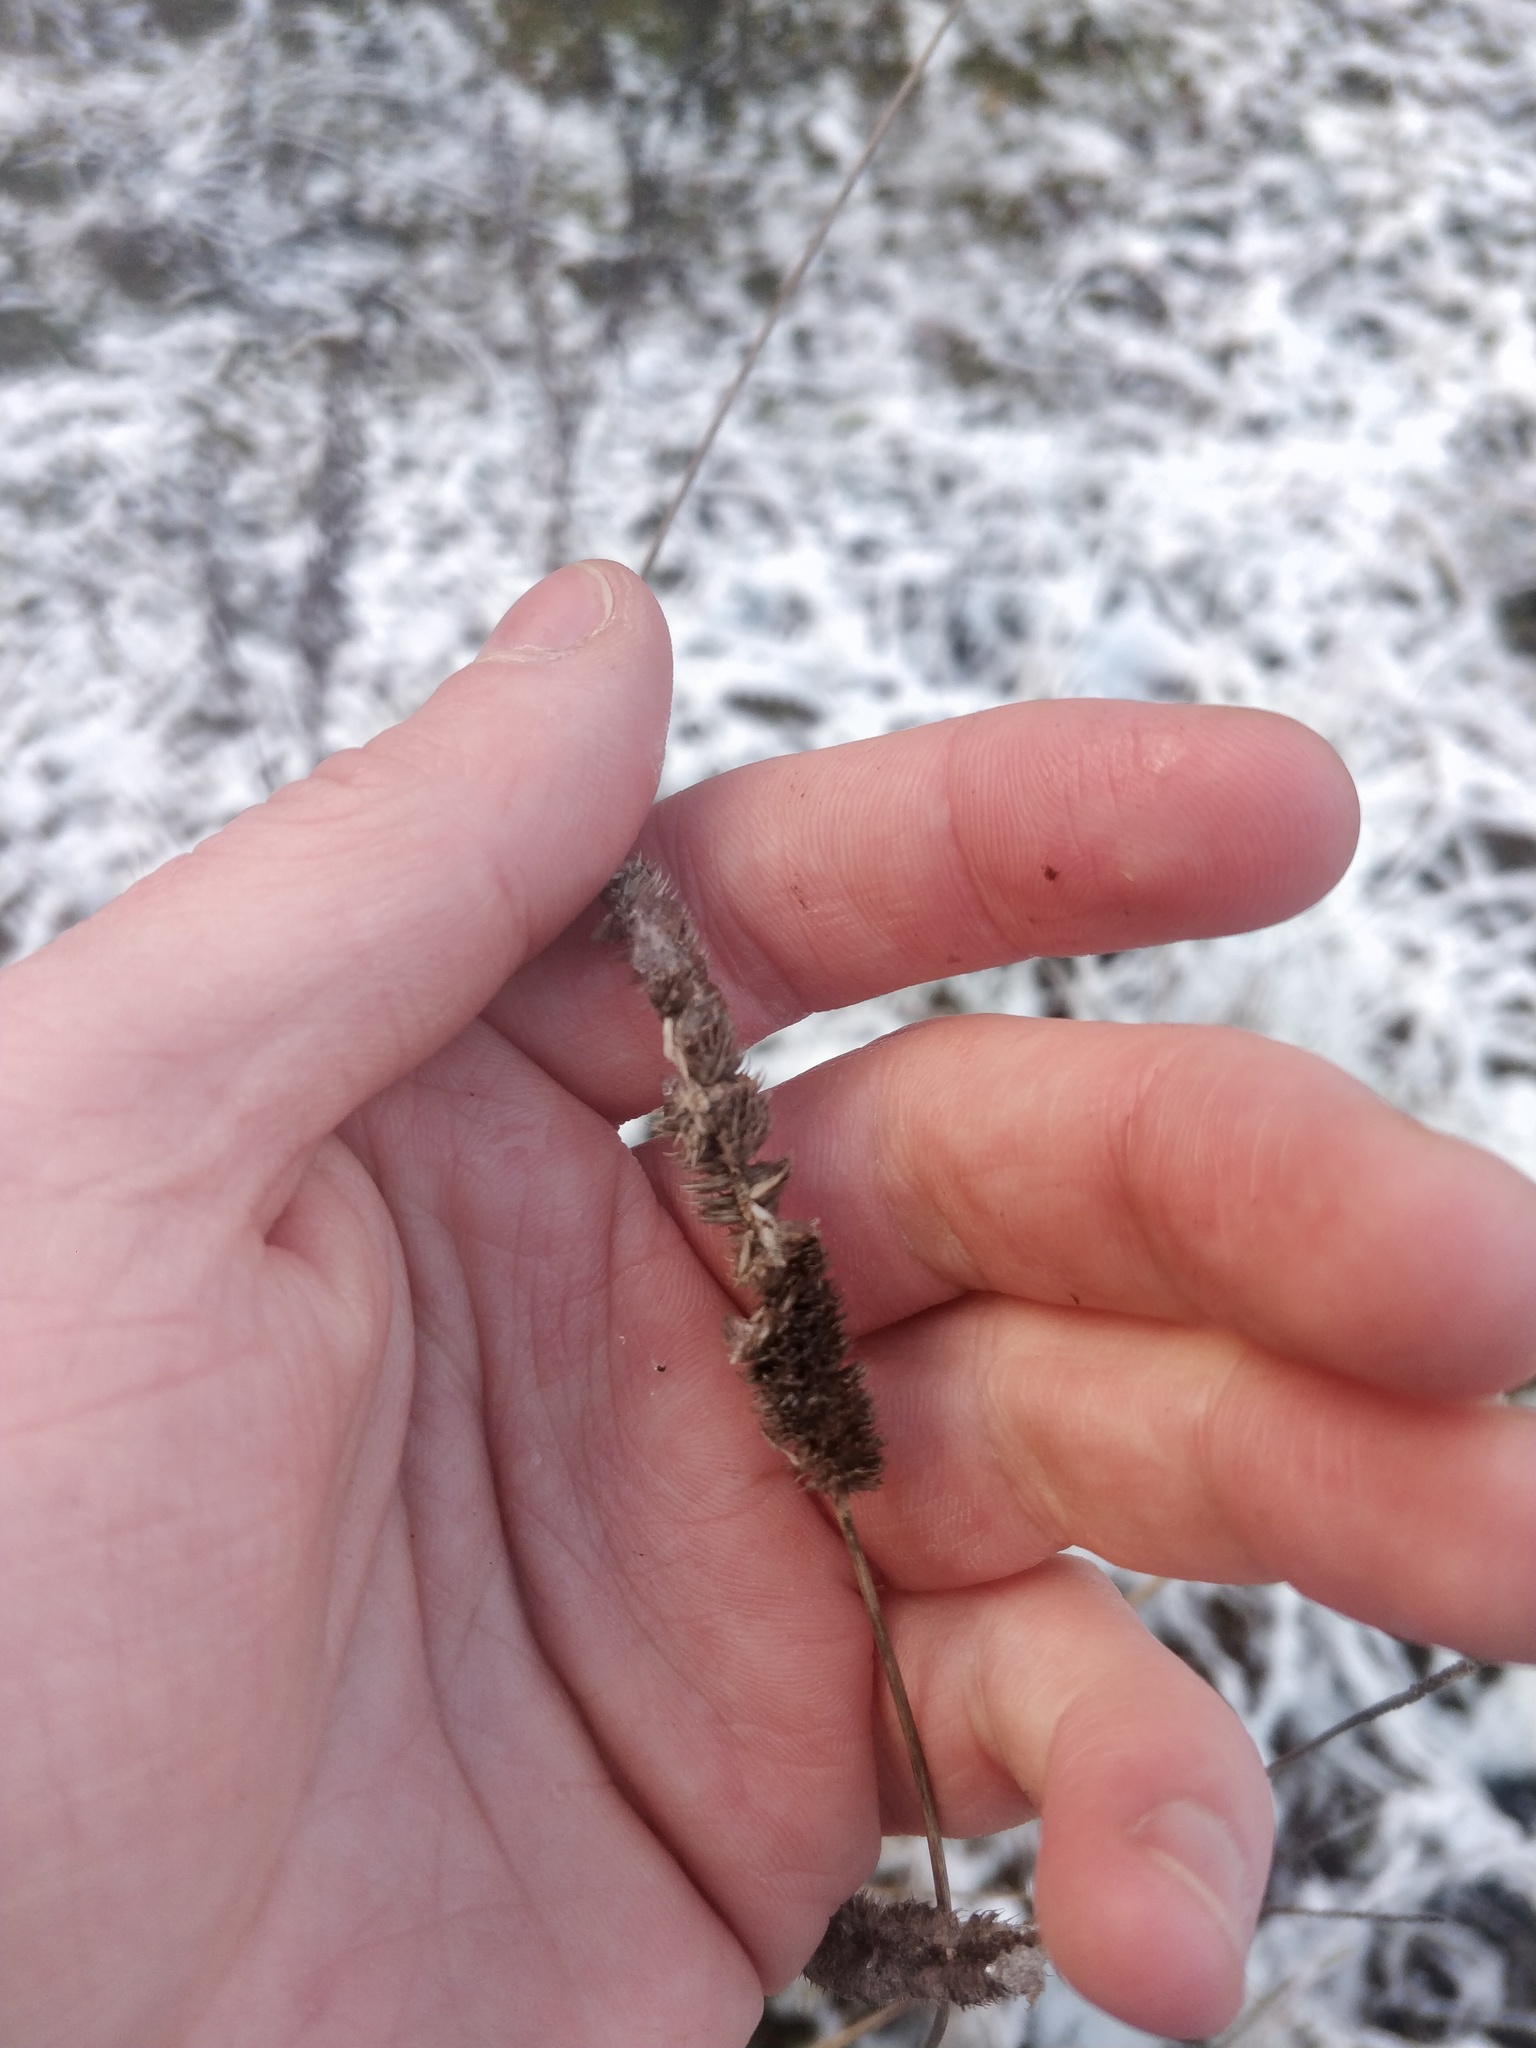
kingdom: Plantae
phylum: Tracheophyta
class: Liliopsida
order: Poales
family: Poaceae
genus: Phleum
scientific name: Phleum pratense
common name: Timothy grass
